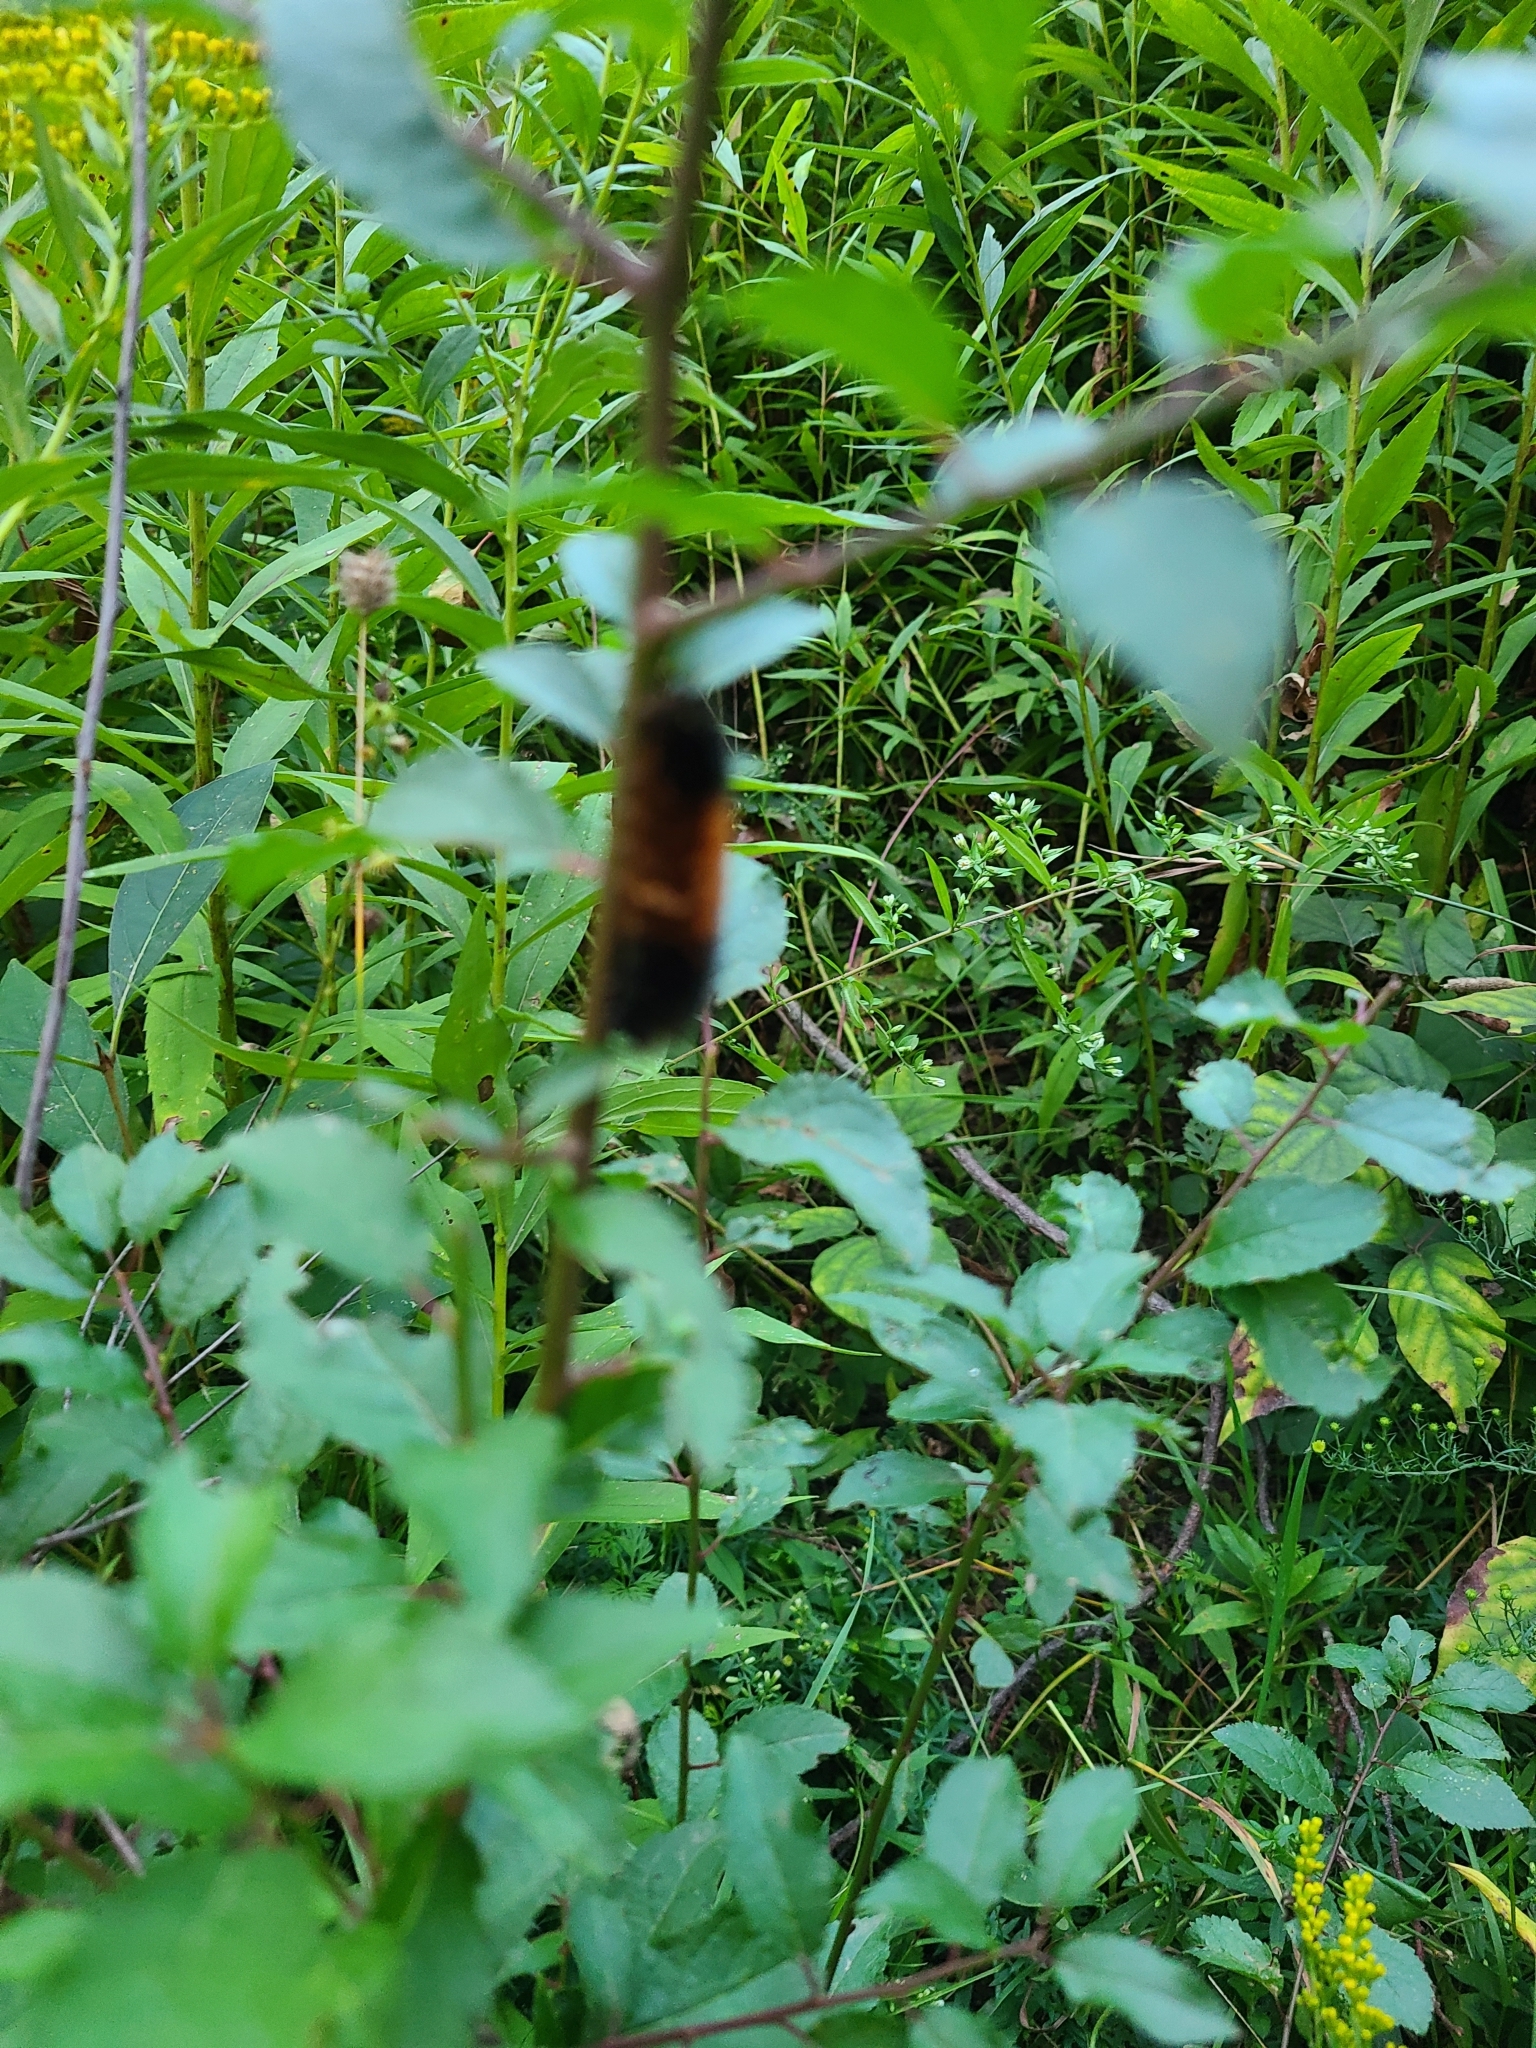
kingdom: Animalia
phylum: Arthropoda
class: Insecta
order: Lepidoptera
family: Erebidae
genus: Pyrrharctia
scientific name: Pyrrharctia isabella
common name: Isabella tiger moth
